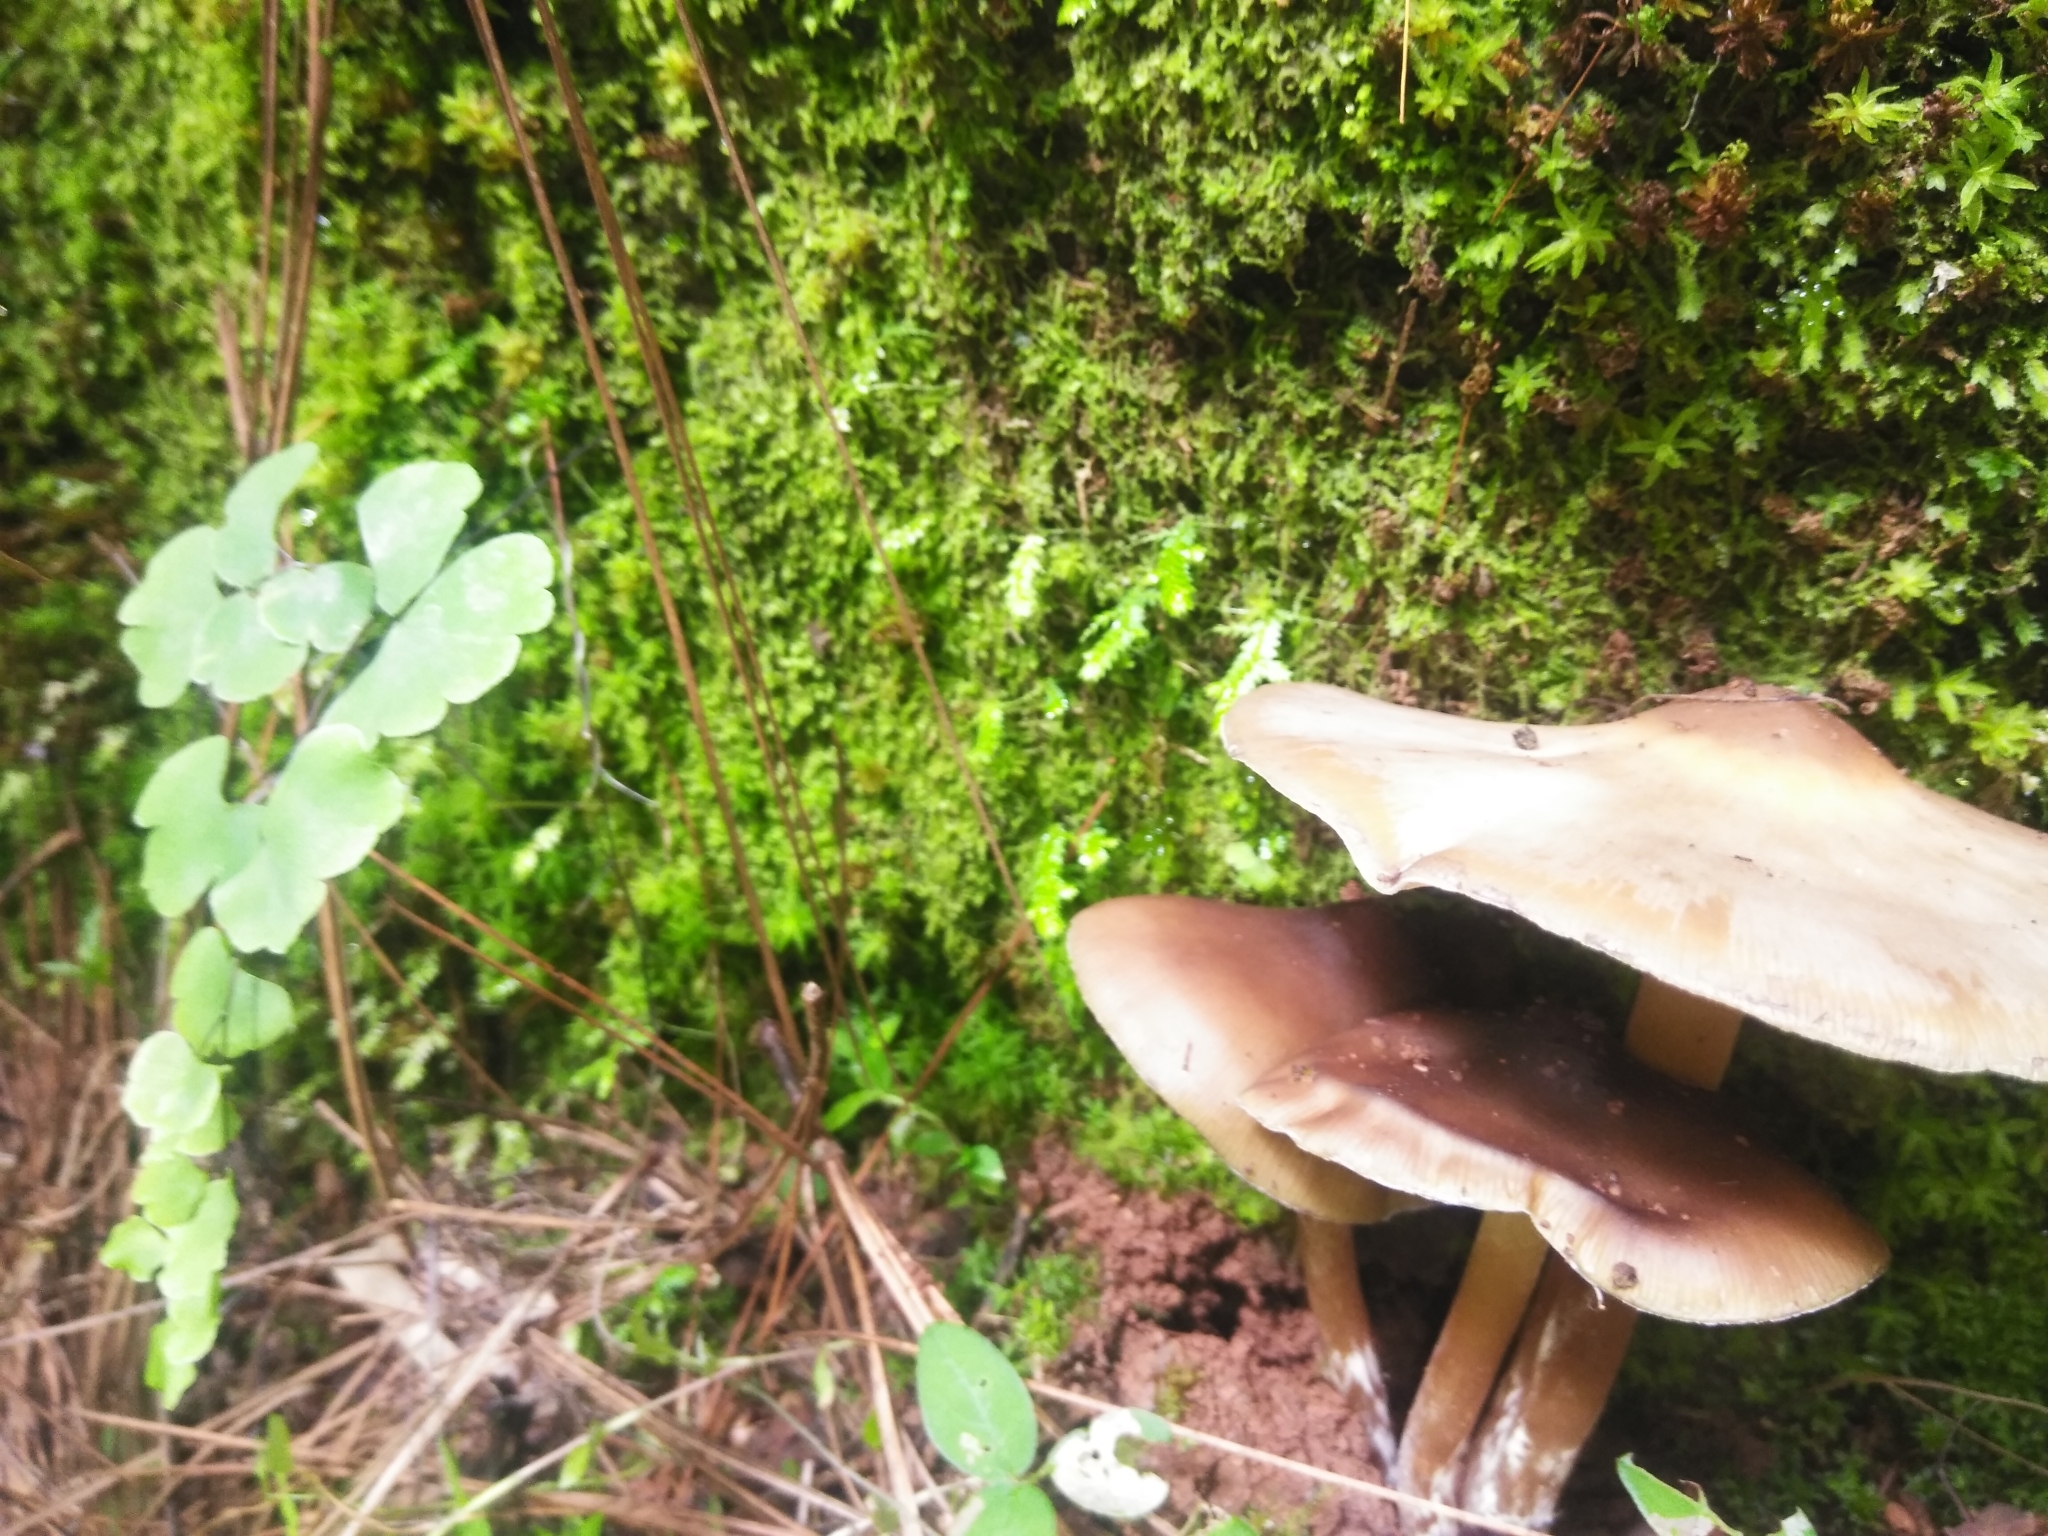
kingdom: Fungi
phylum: Basidiomycota
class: Agaricomycetes
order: Agaricales
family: Hymenogastraceae
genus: Psilocybe
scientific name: Psilocybe caerulescens
